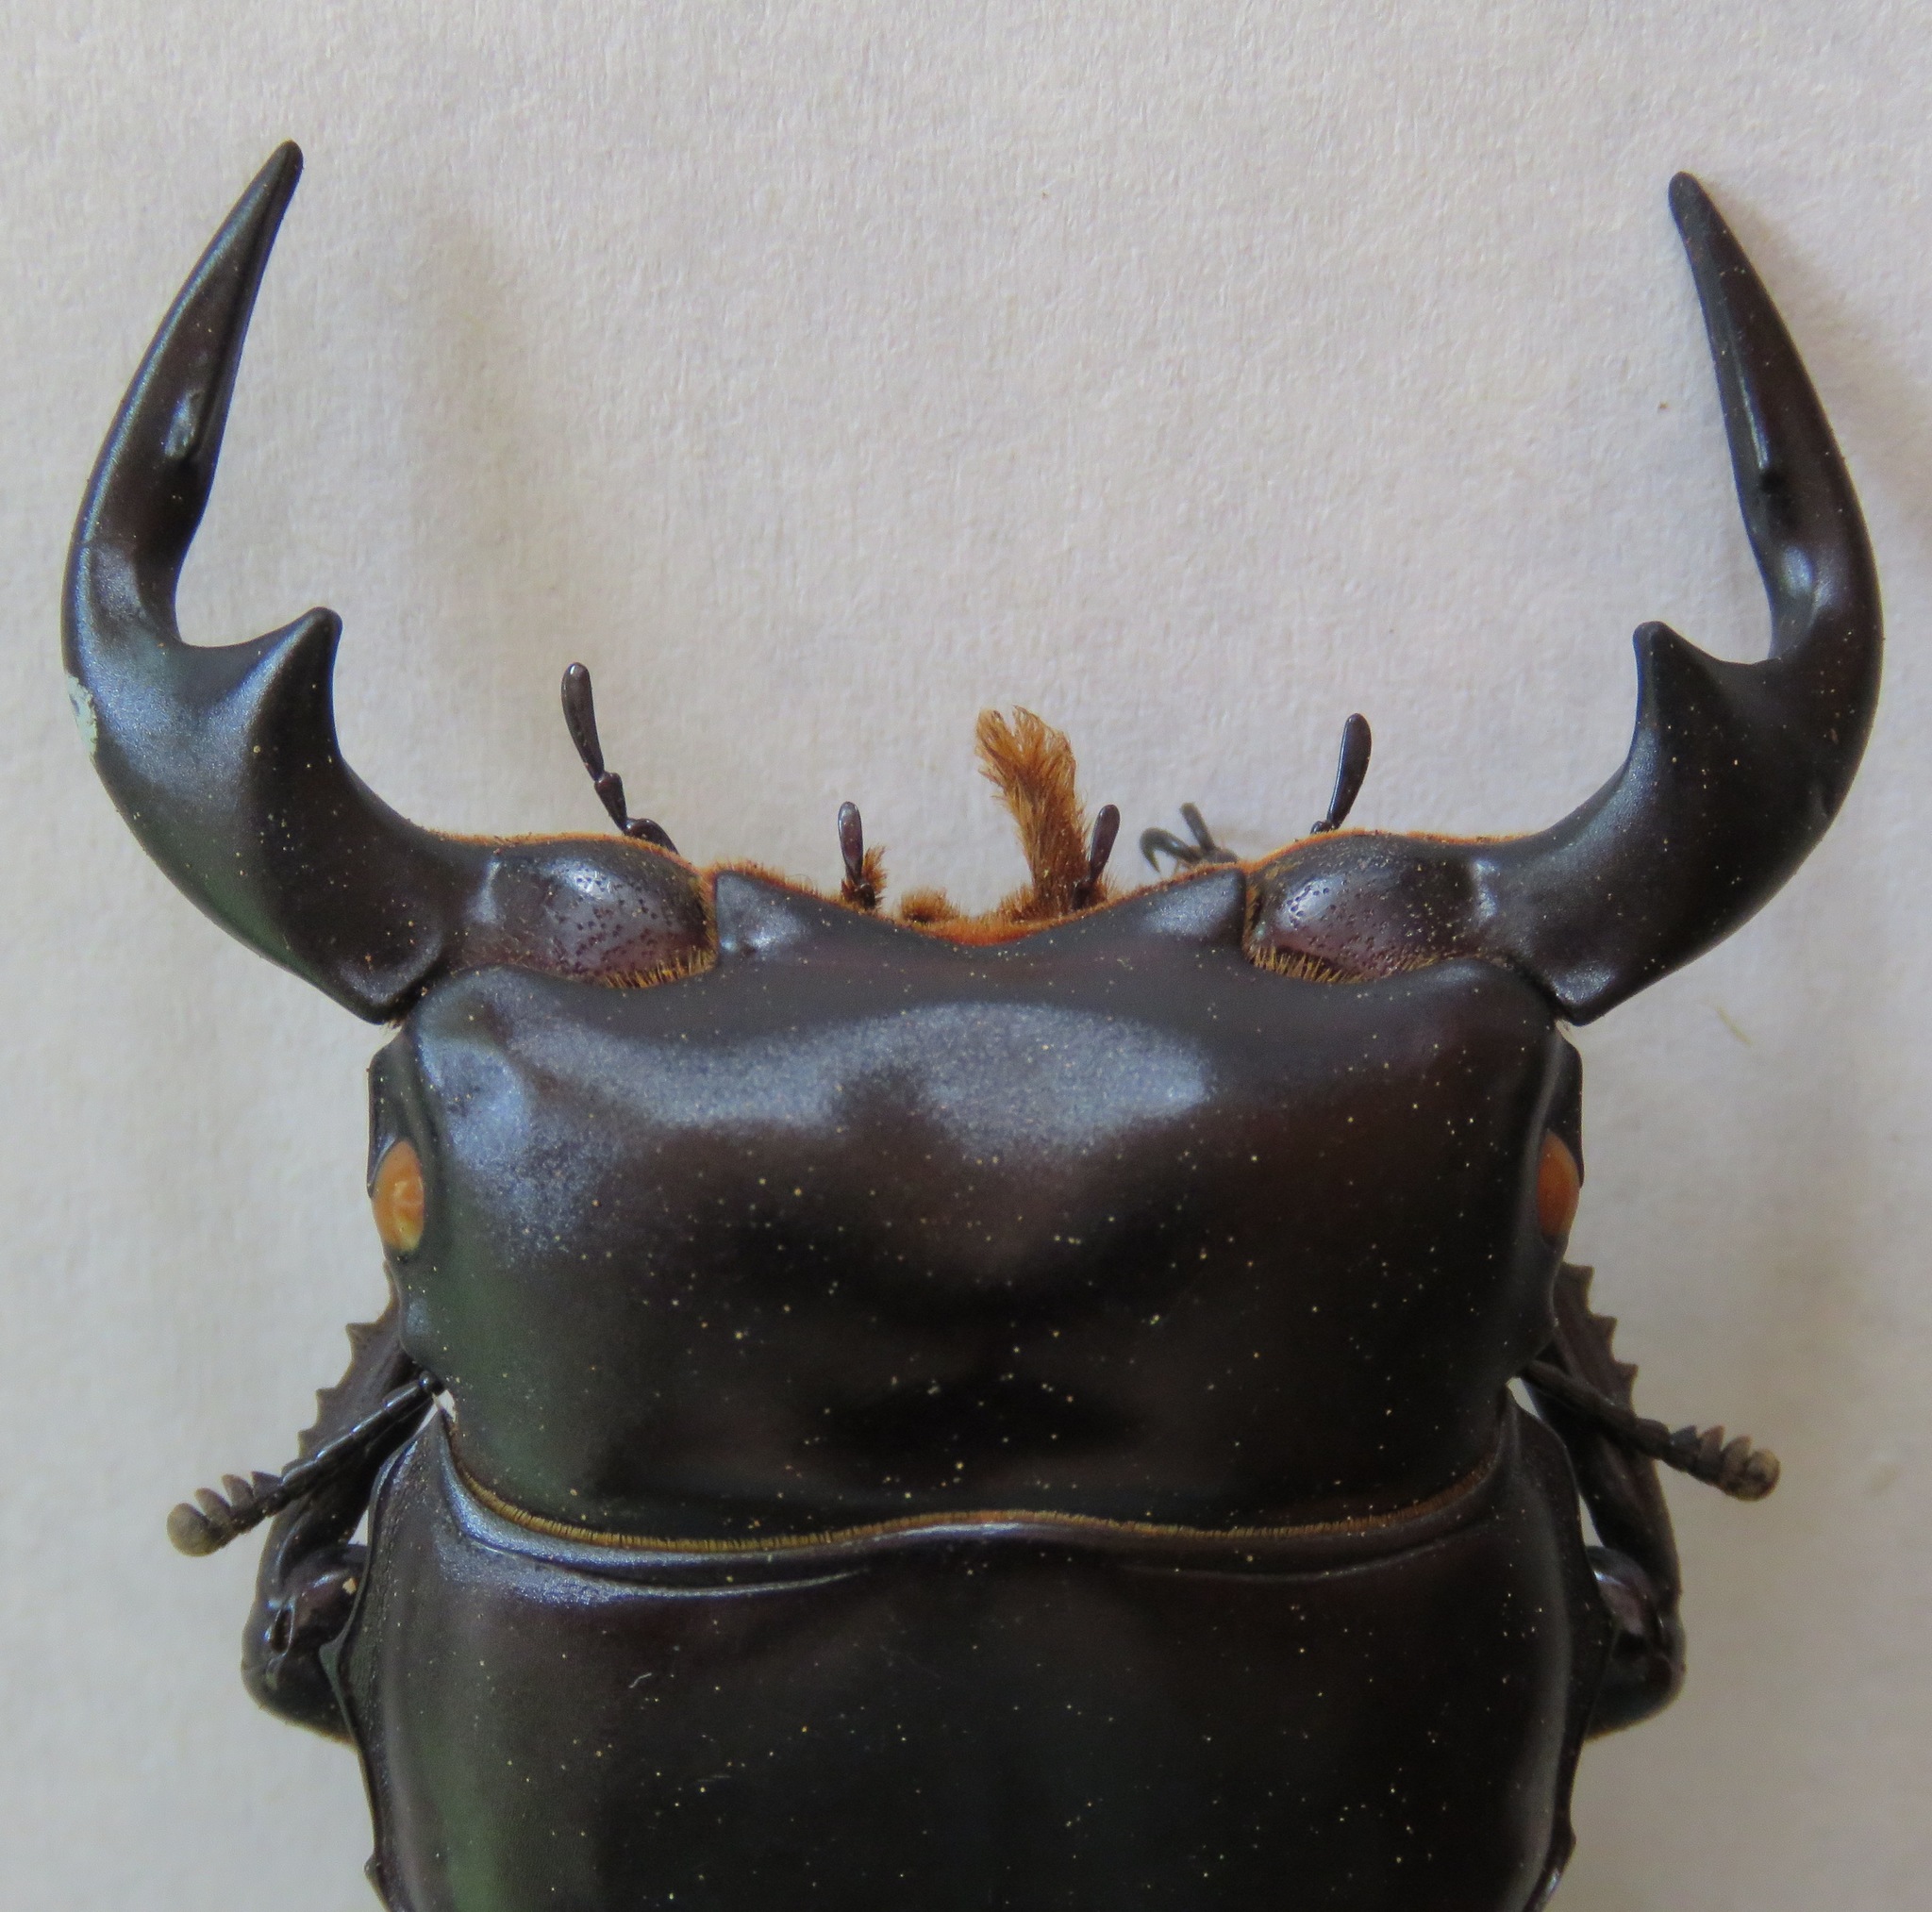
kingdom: Animalia
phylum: Arthropoda
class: Insecta
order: Coleoptera
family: Lucanidae
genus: Dorcus
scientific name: Dorcus antaeus
